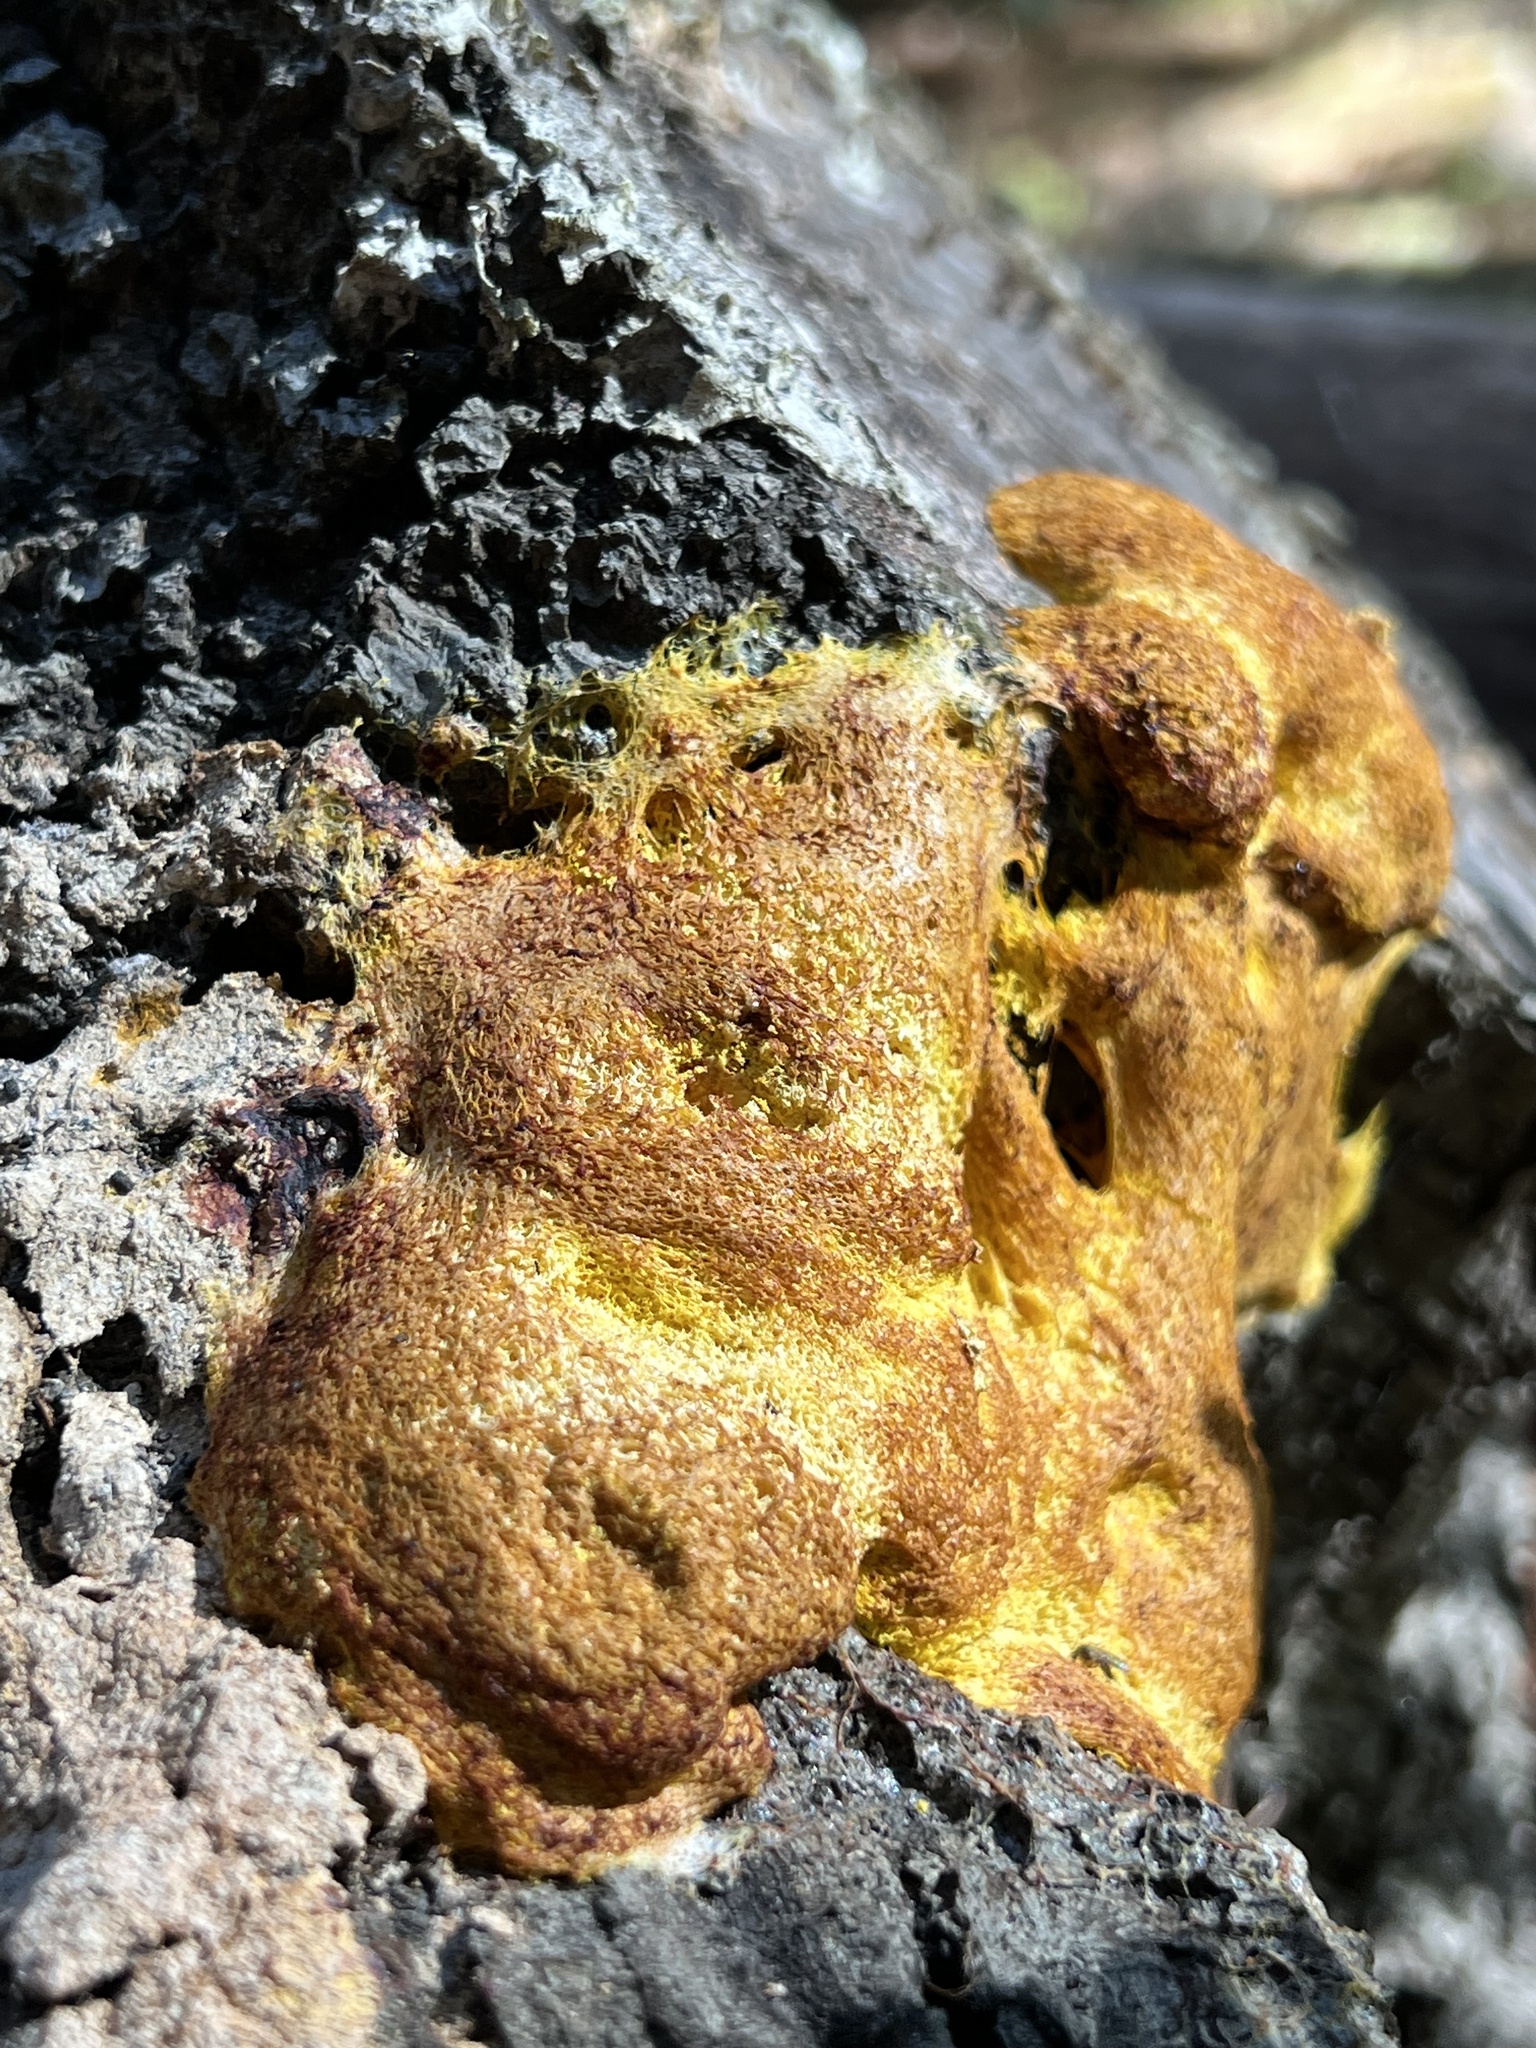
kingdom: Protozoa
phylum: Mycetozoa
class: Myxomycetes
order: Physarales
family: Physaraceae
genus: Fuligo
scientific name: Fuligo septica
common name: Dog vomit slime mold
